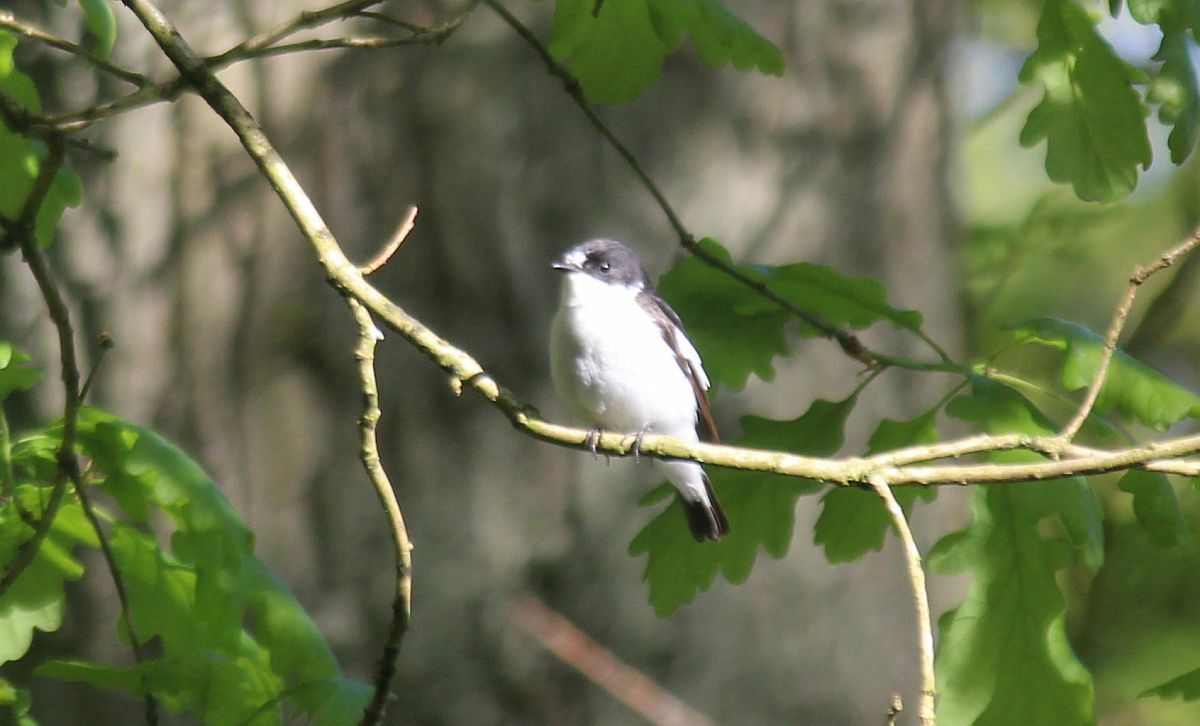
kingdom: Animalia
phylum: Chordata
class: Aves
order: Passeriformes
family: Muscicapidae
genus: Ficedula
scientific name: Ficedula hypoleuca
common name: European pied flycatcher
